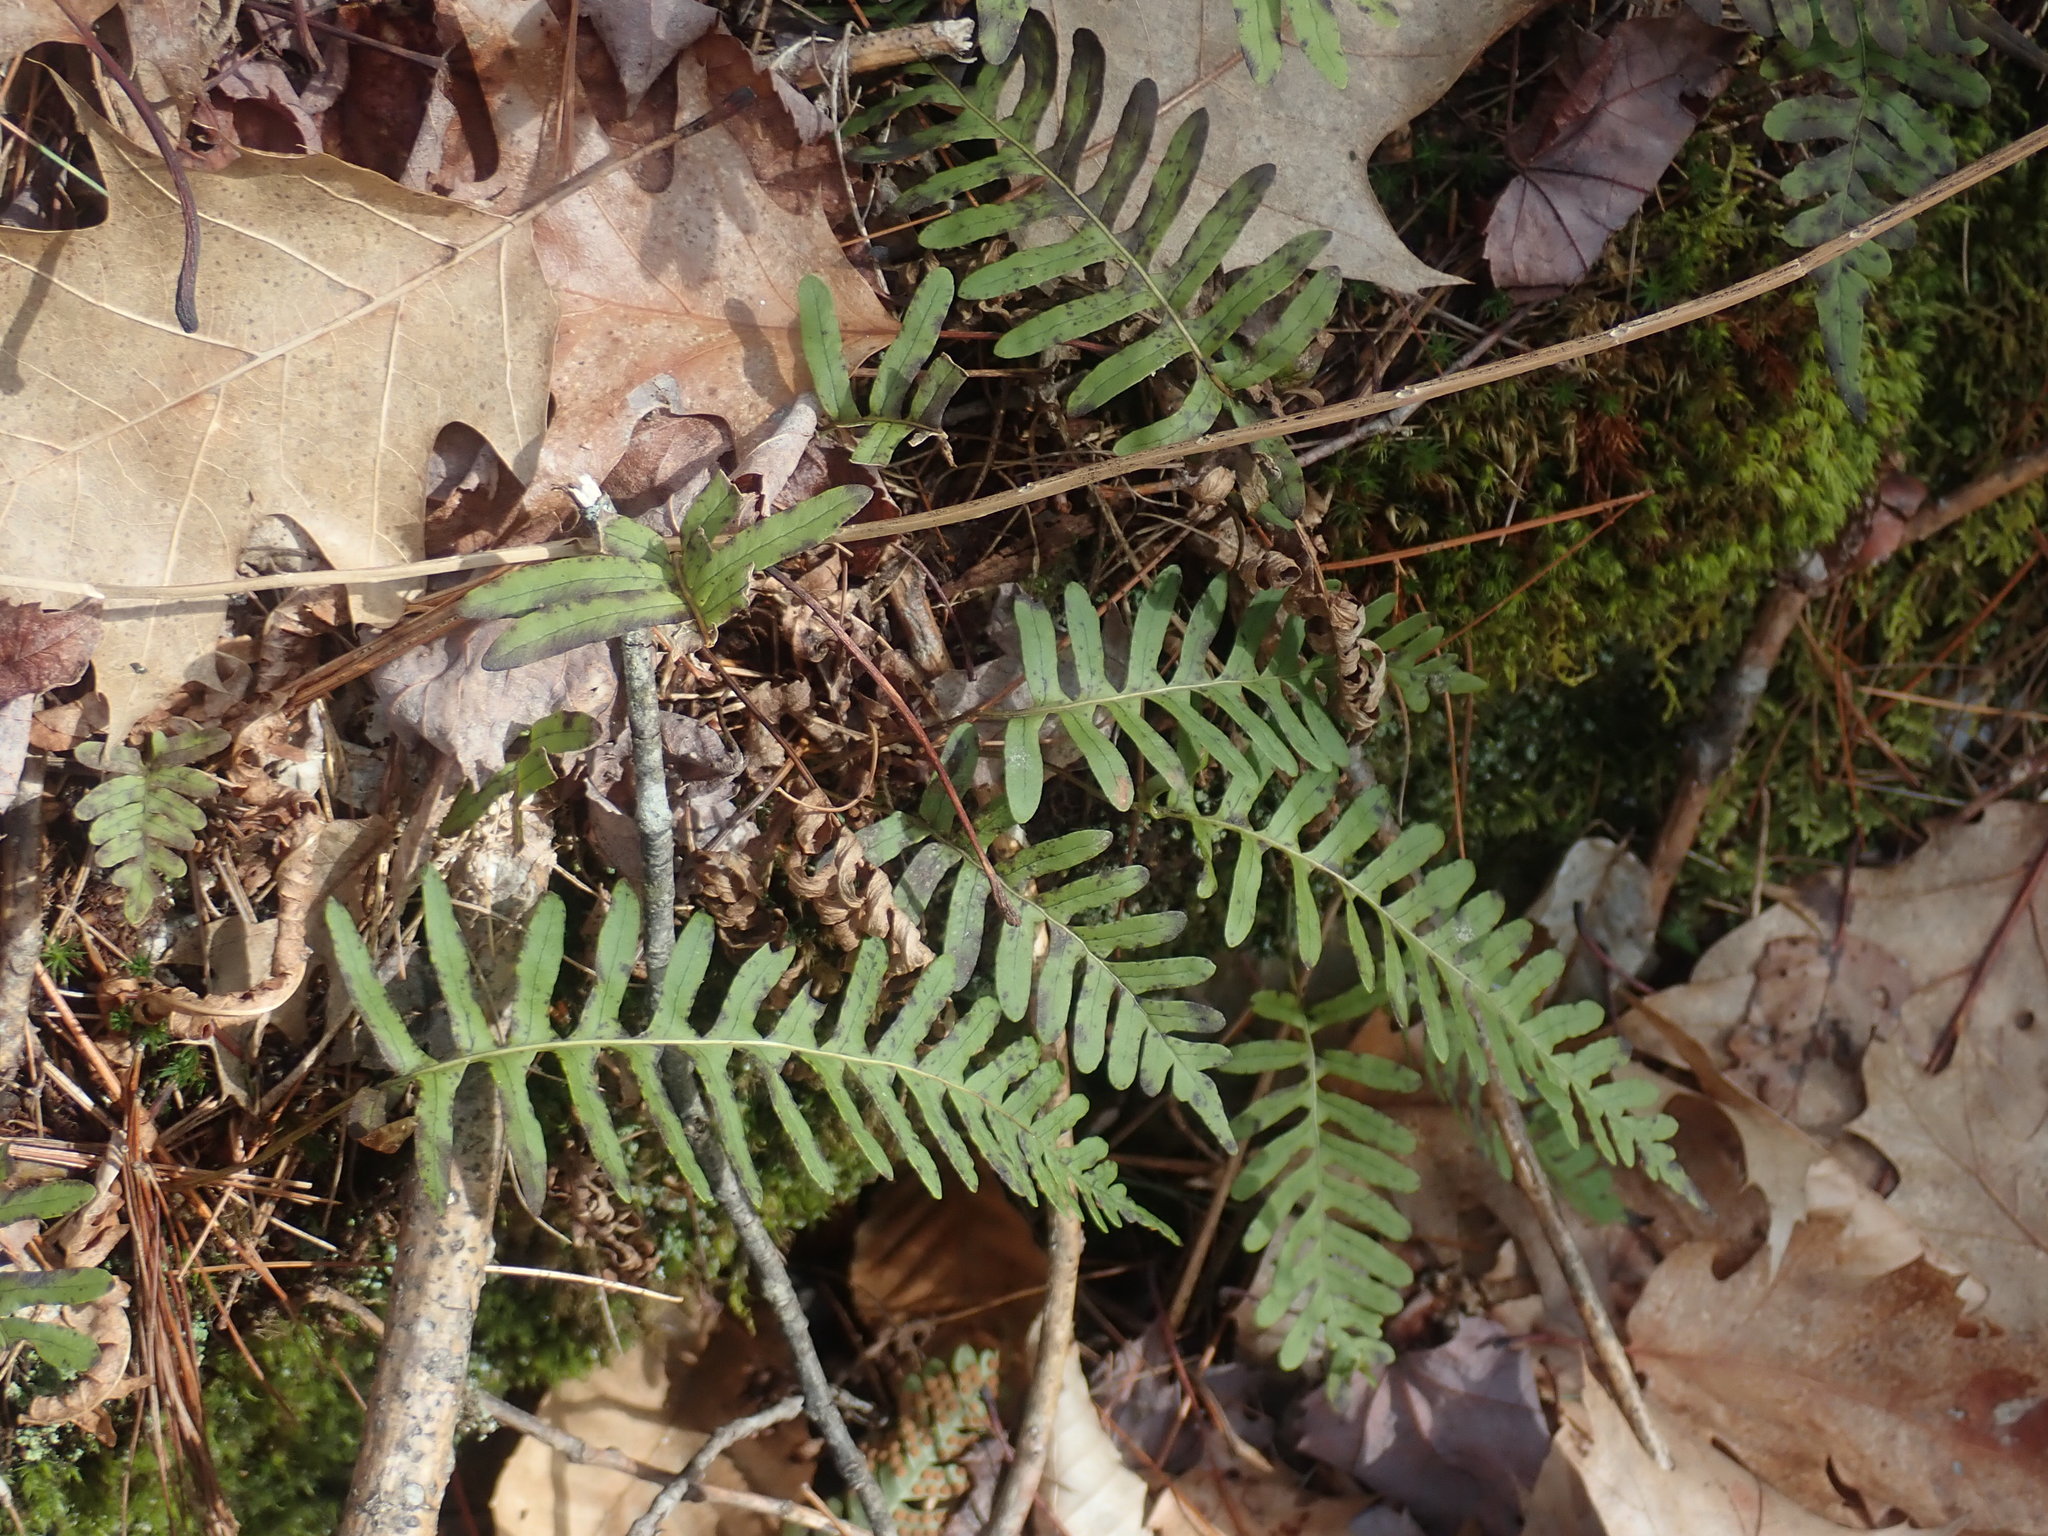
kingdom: Plantae
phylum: Tracheophyta
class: Polypodiopsida
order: Polypodiales
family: Polypodiaceae
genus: Polypodium
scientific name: Polypodium
